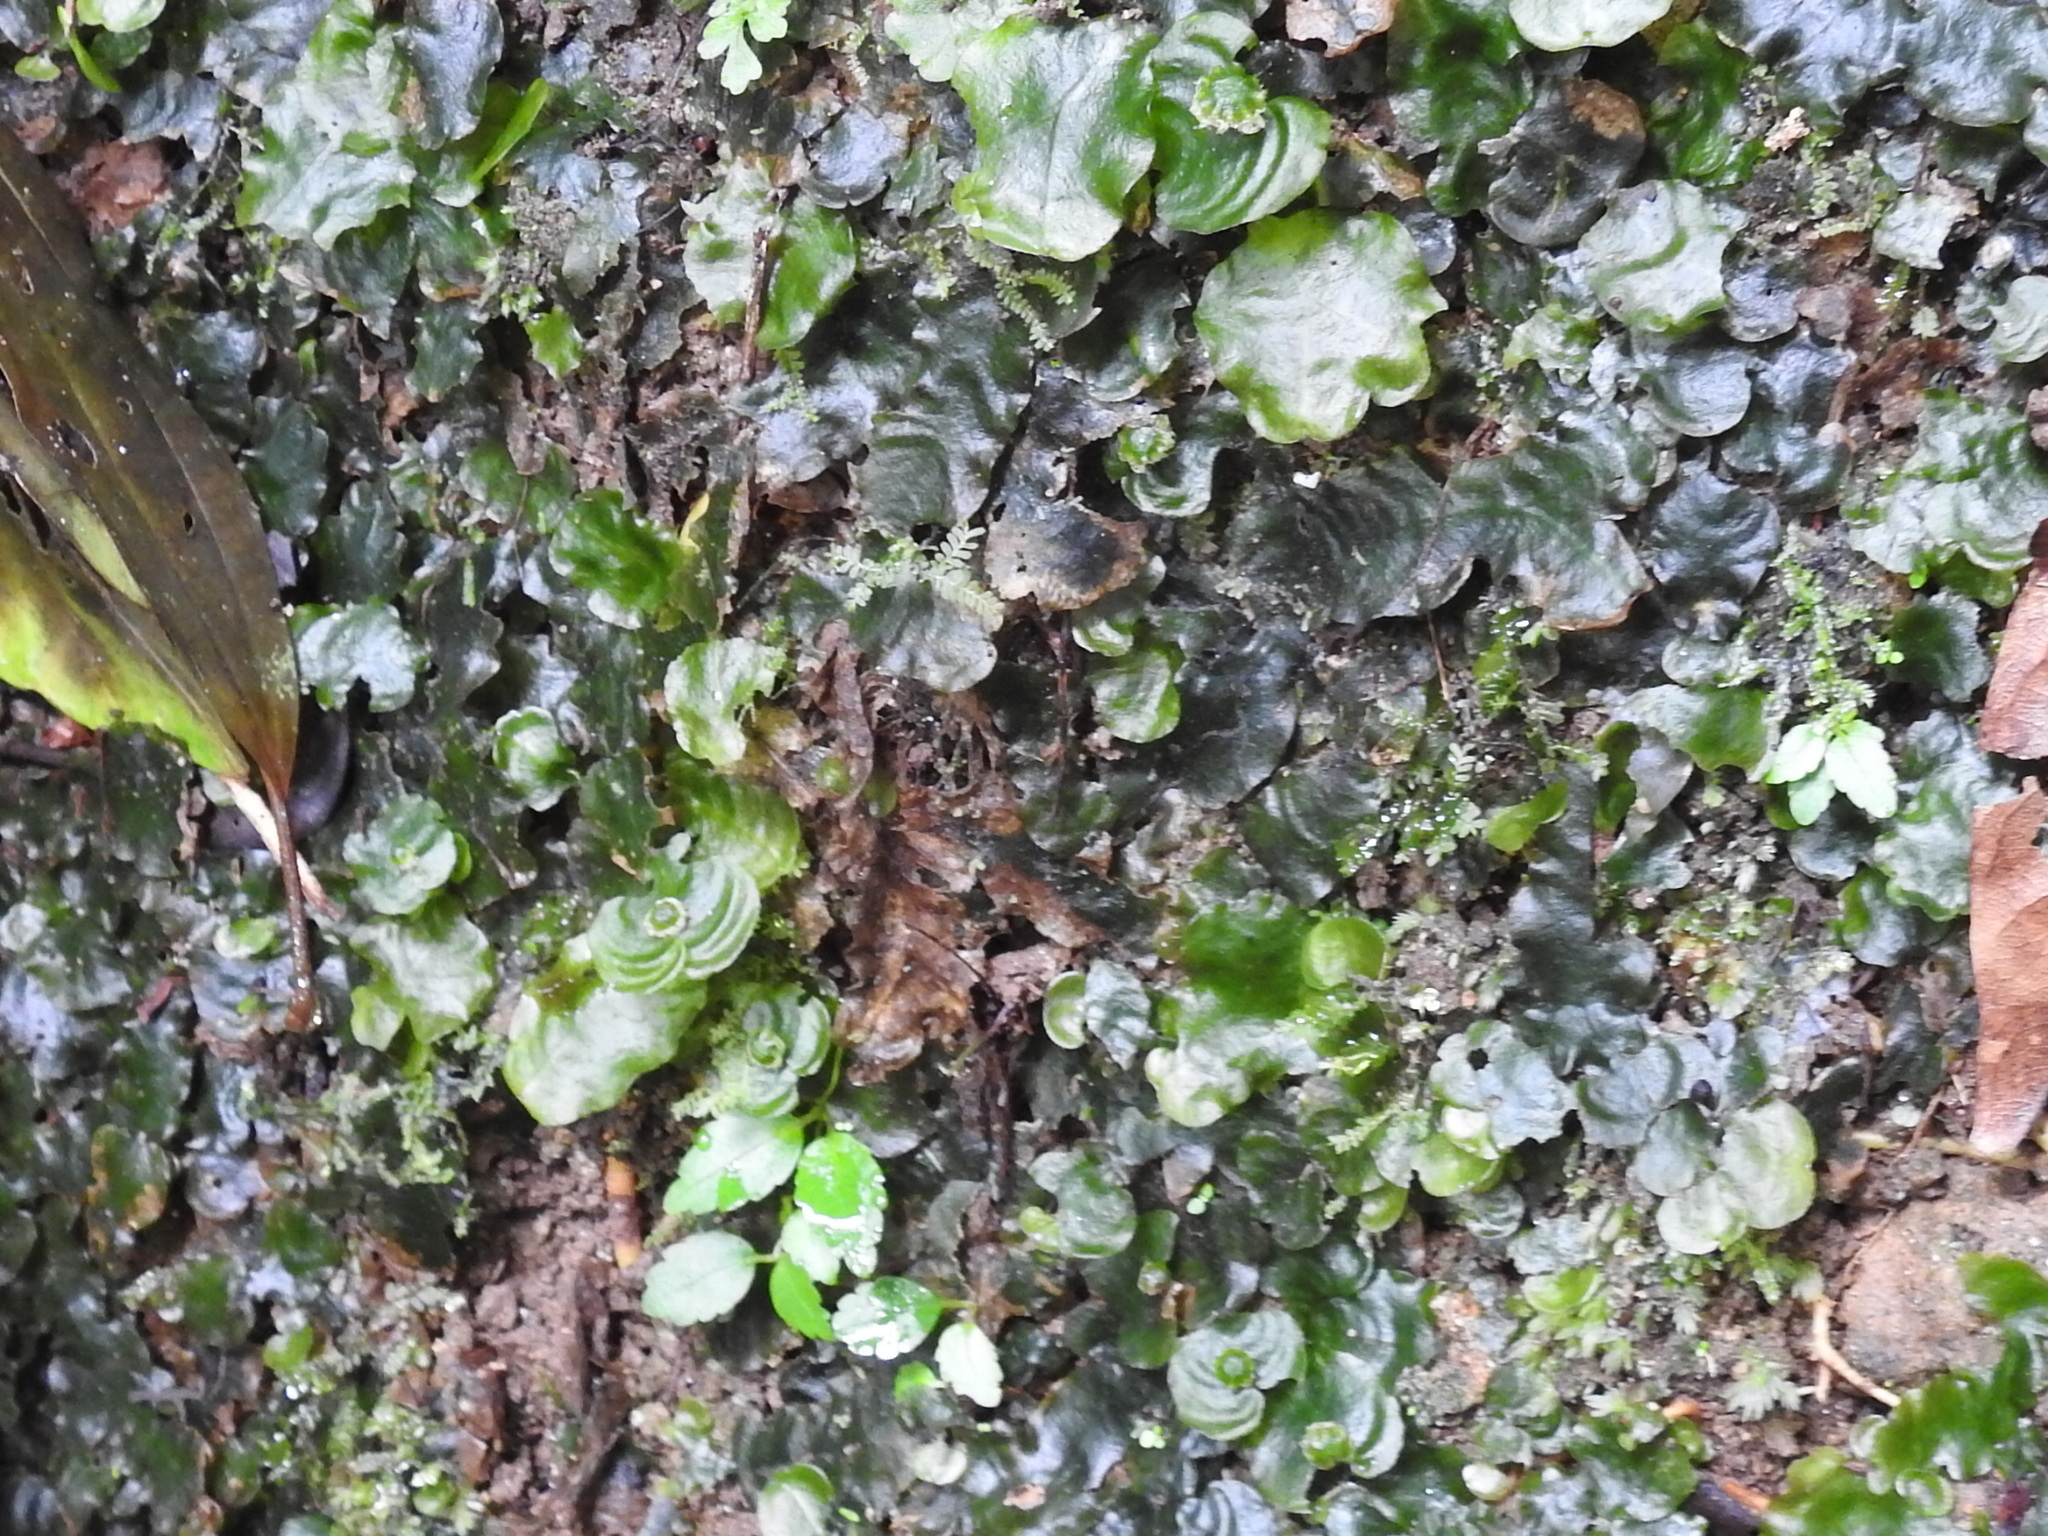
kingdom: Plantae
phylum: Marchantiophyta
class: Marchantiopsida
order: Marchantiales
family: Dumortieraceae
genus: Dumortiera
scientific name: Dumortiera hirsuta
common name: Dumortier's liverwort
